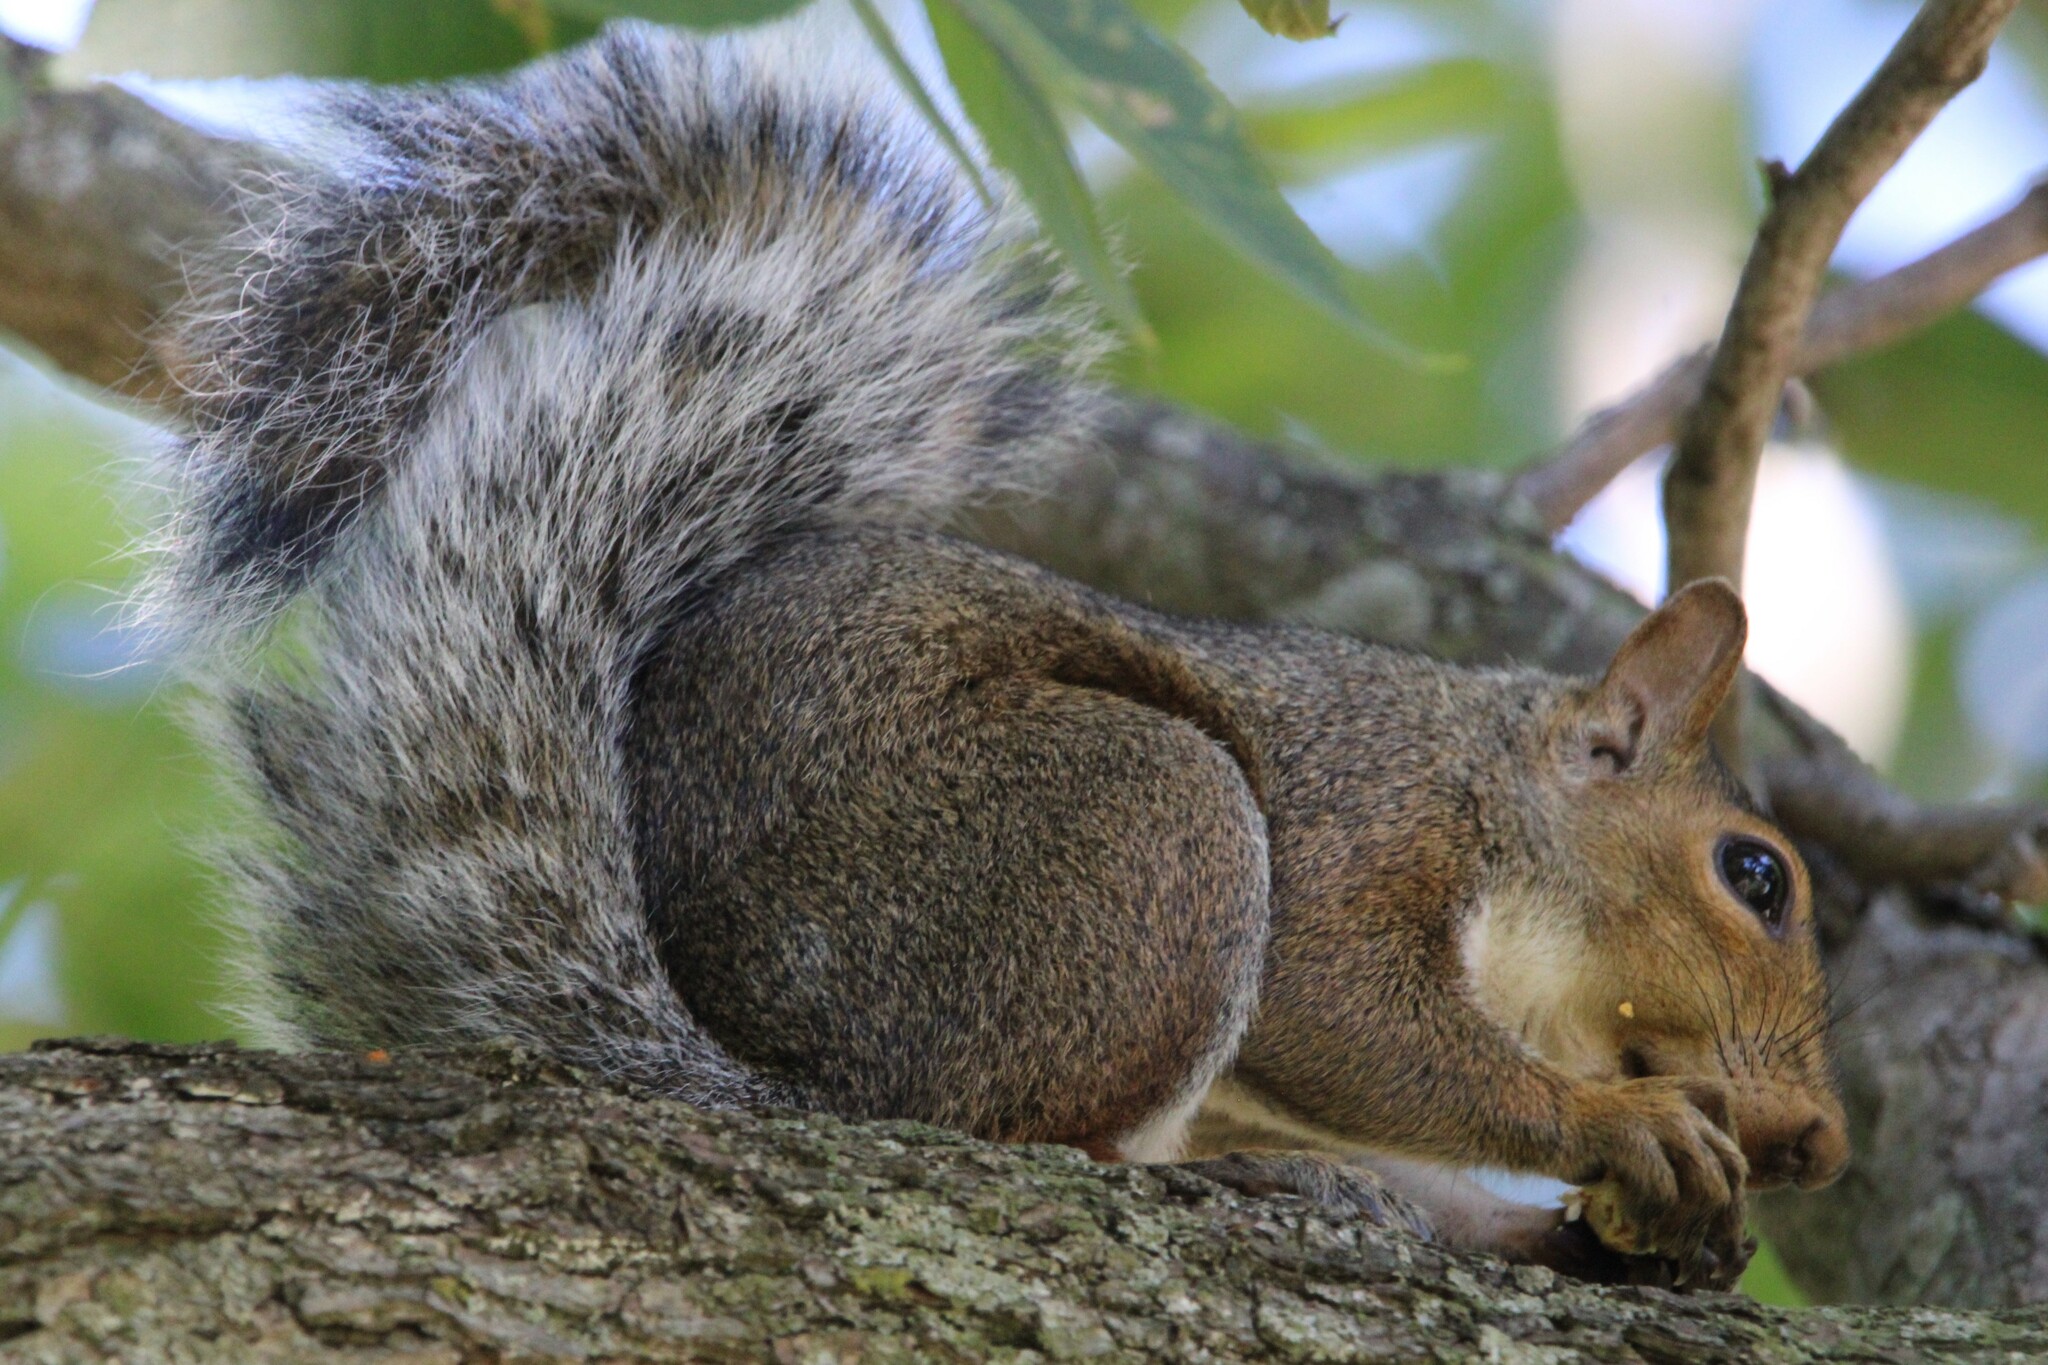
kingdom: Animalia
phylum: Chordata
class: Mammalia
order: Rodentia
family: Sciuridae
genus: Sciurus
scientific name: Sciurus carolinensis
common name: Eastern gray squirrel
